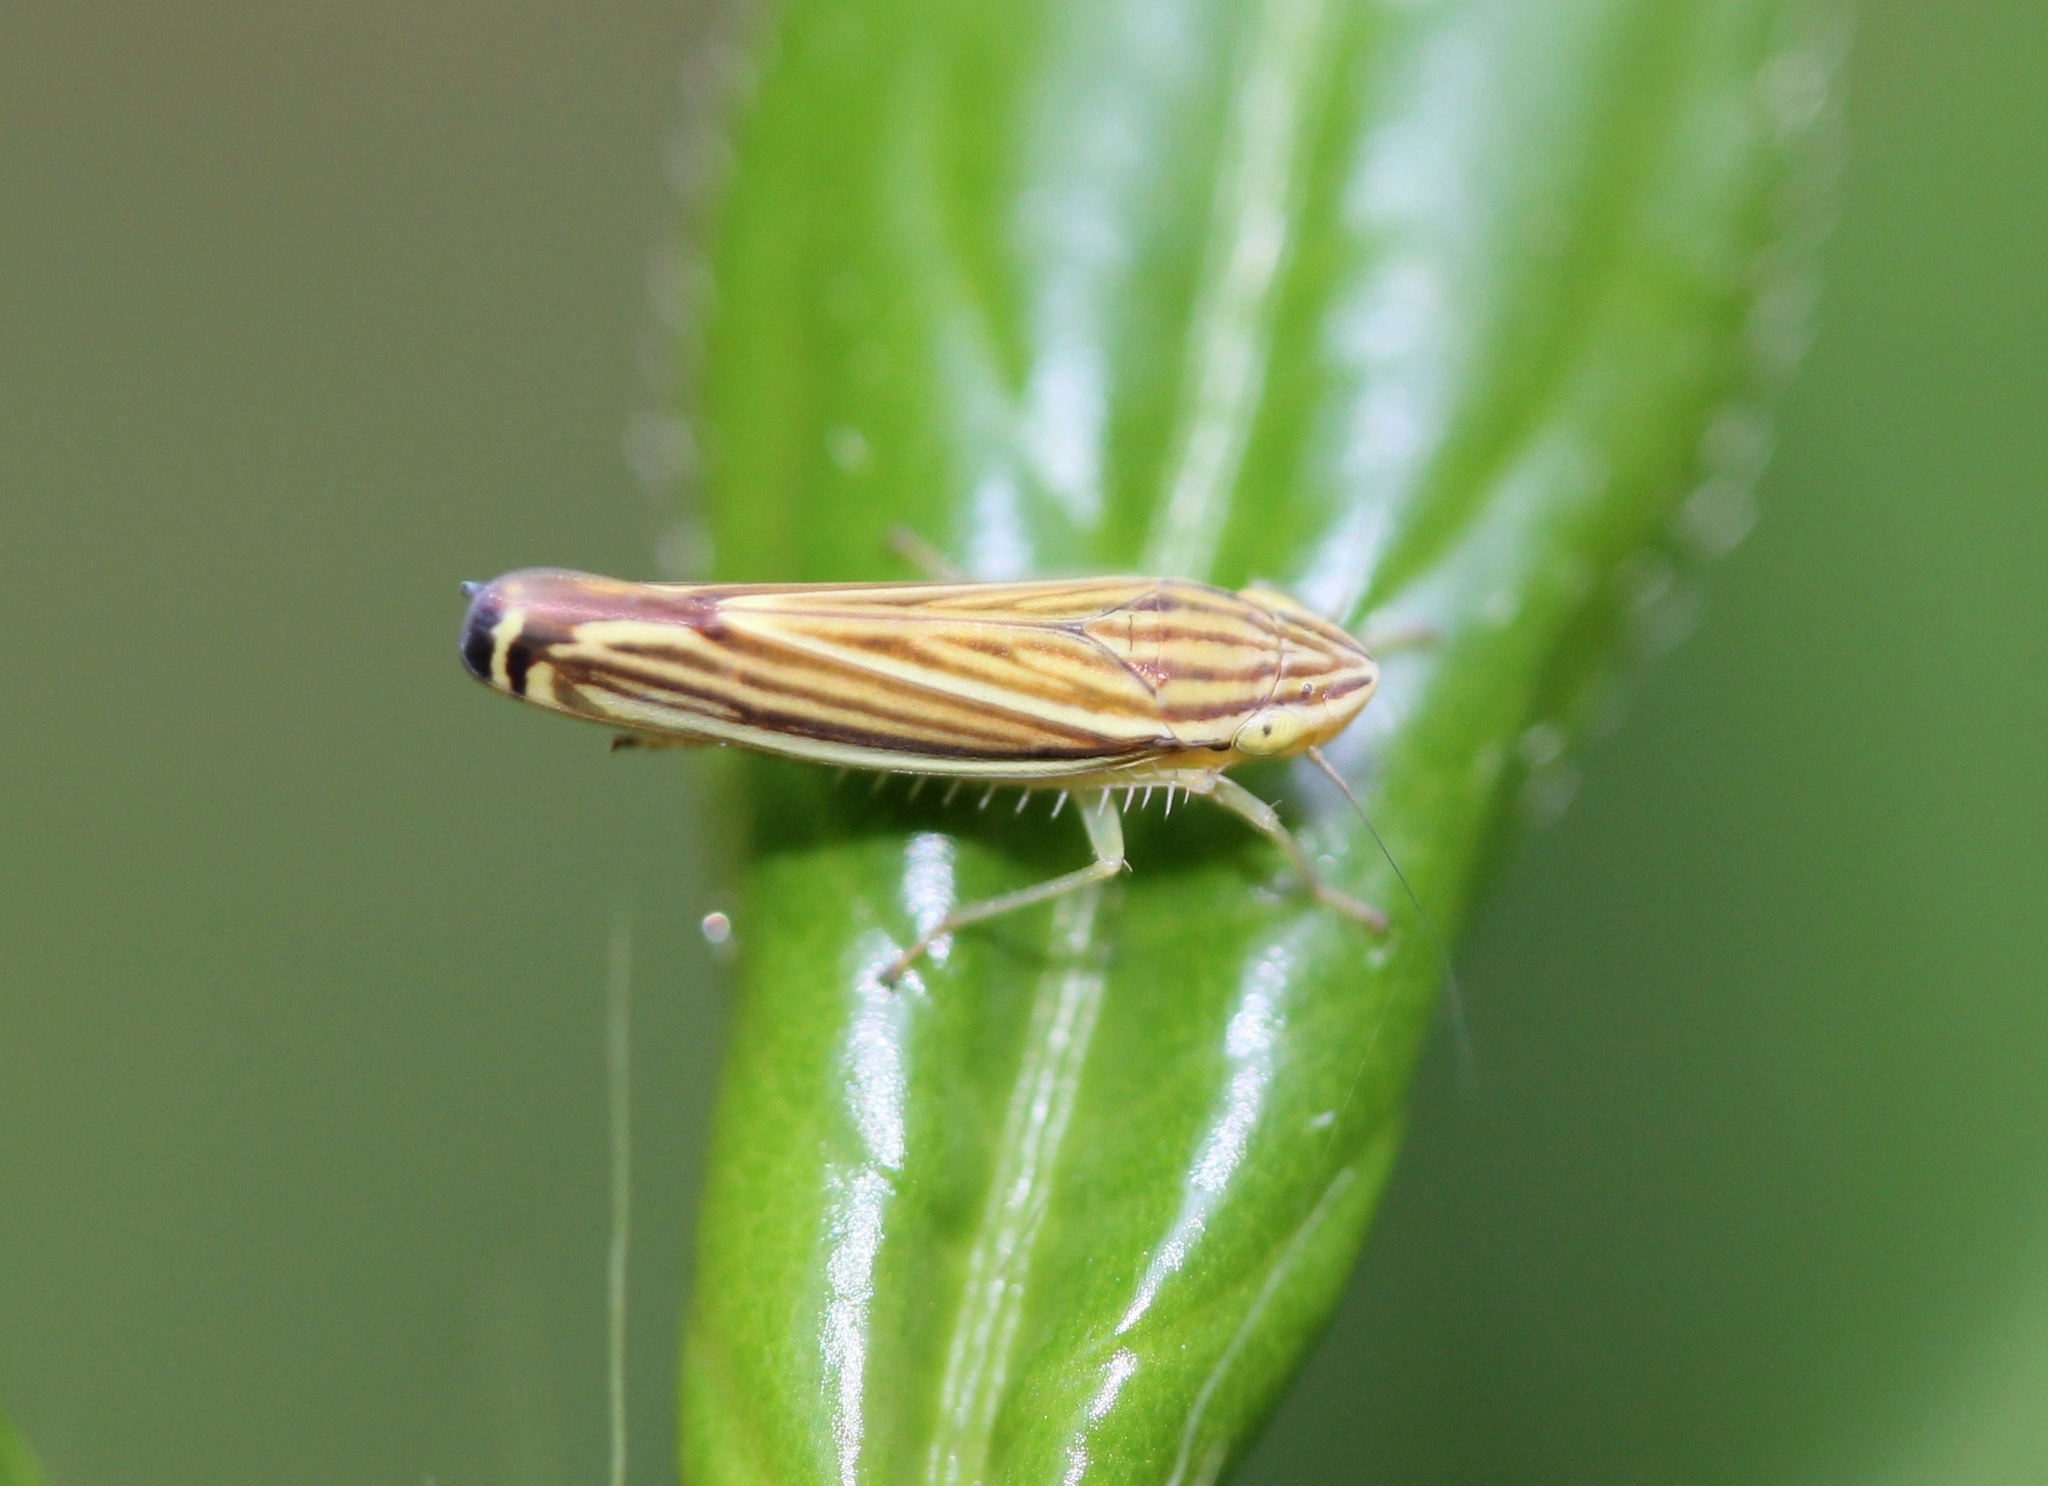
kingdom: Animalia
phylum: Arthropoda
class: Insecta
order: Hemiptera
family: Cicadellidae
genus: Sibovia
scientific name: Sibovia occatoria
